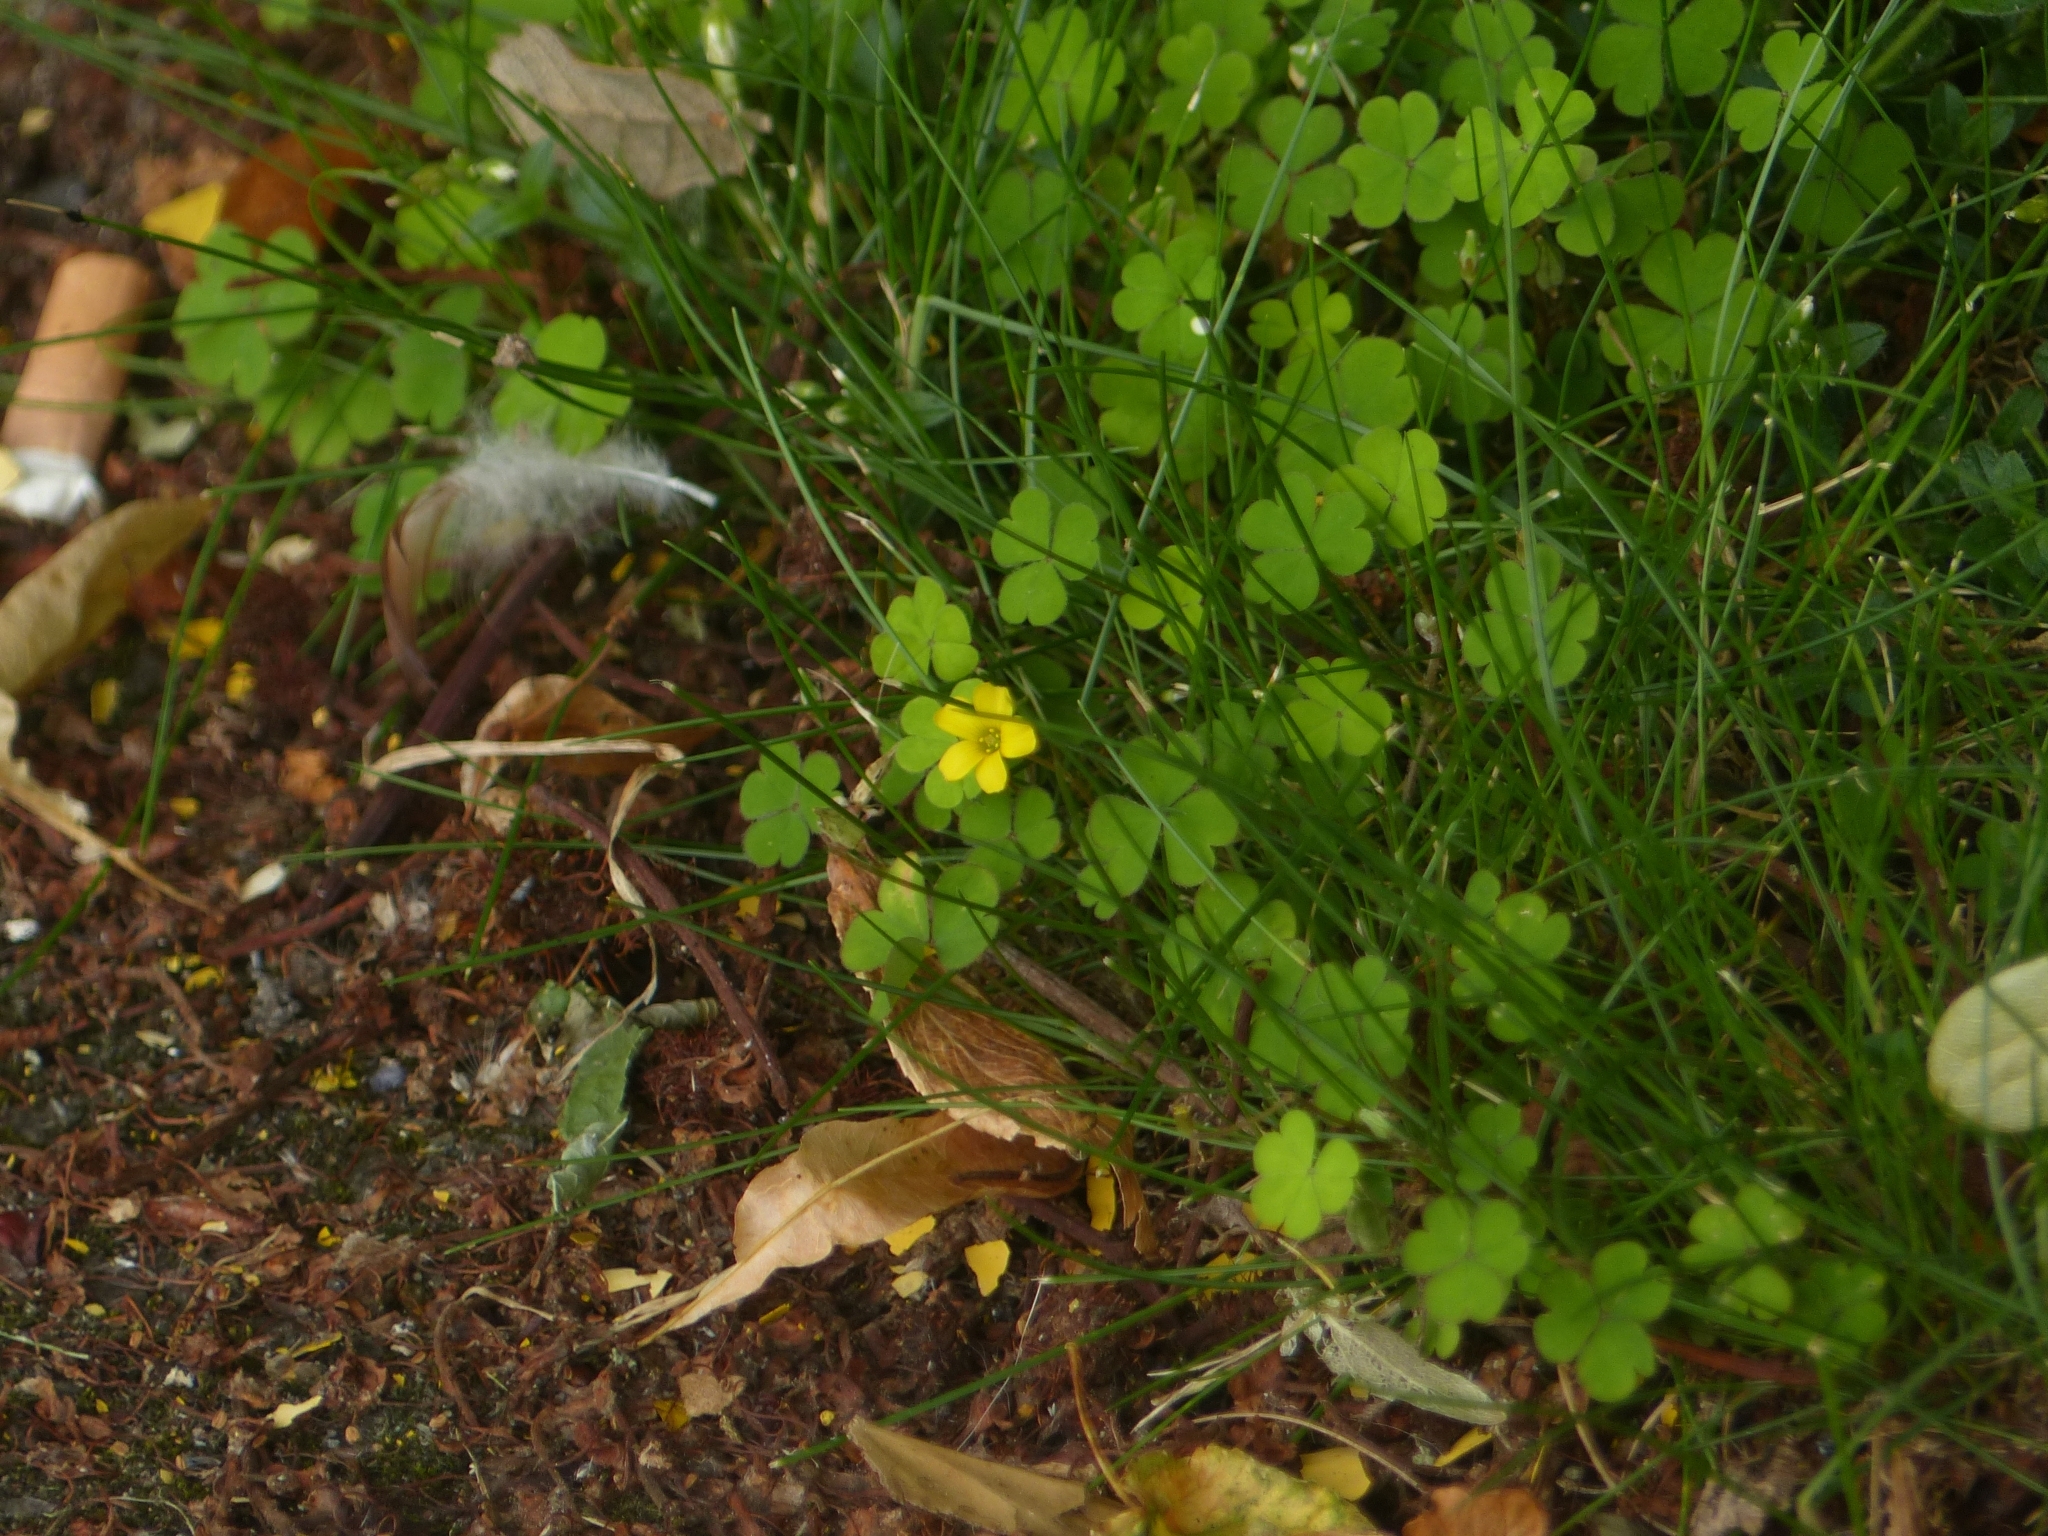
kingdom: Plantae
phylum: Tracheophyta
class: Magnoliopsida
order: Oxalidales
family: Oxalidaceae
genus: Oxalis
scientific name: Oxalis exilis
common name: Least yellow-sorrel
